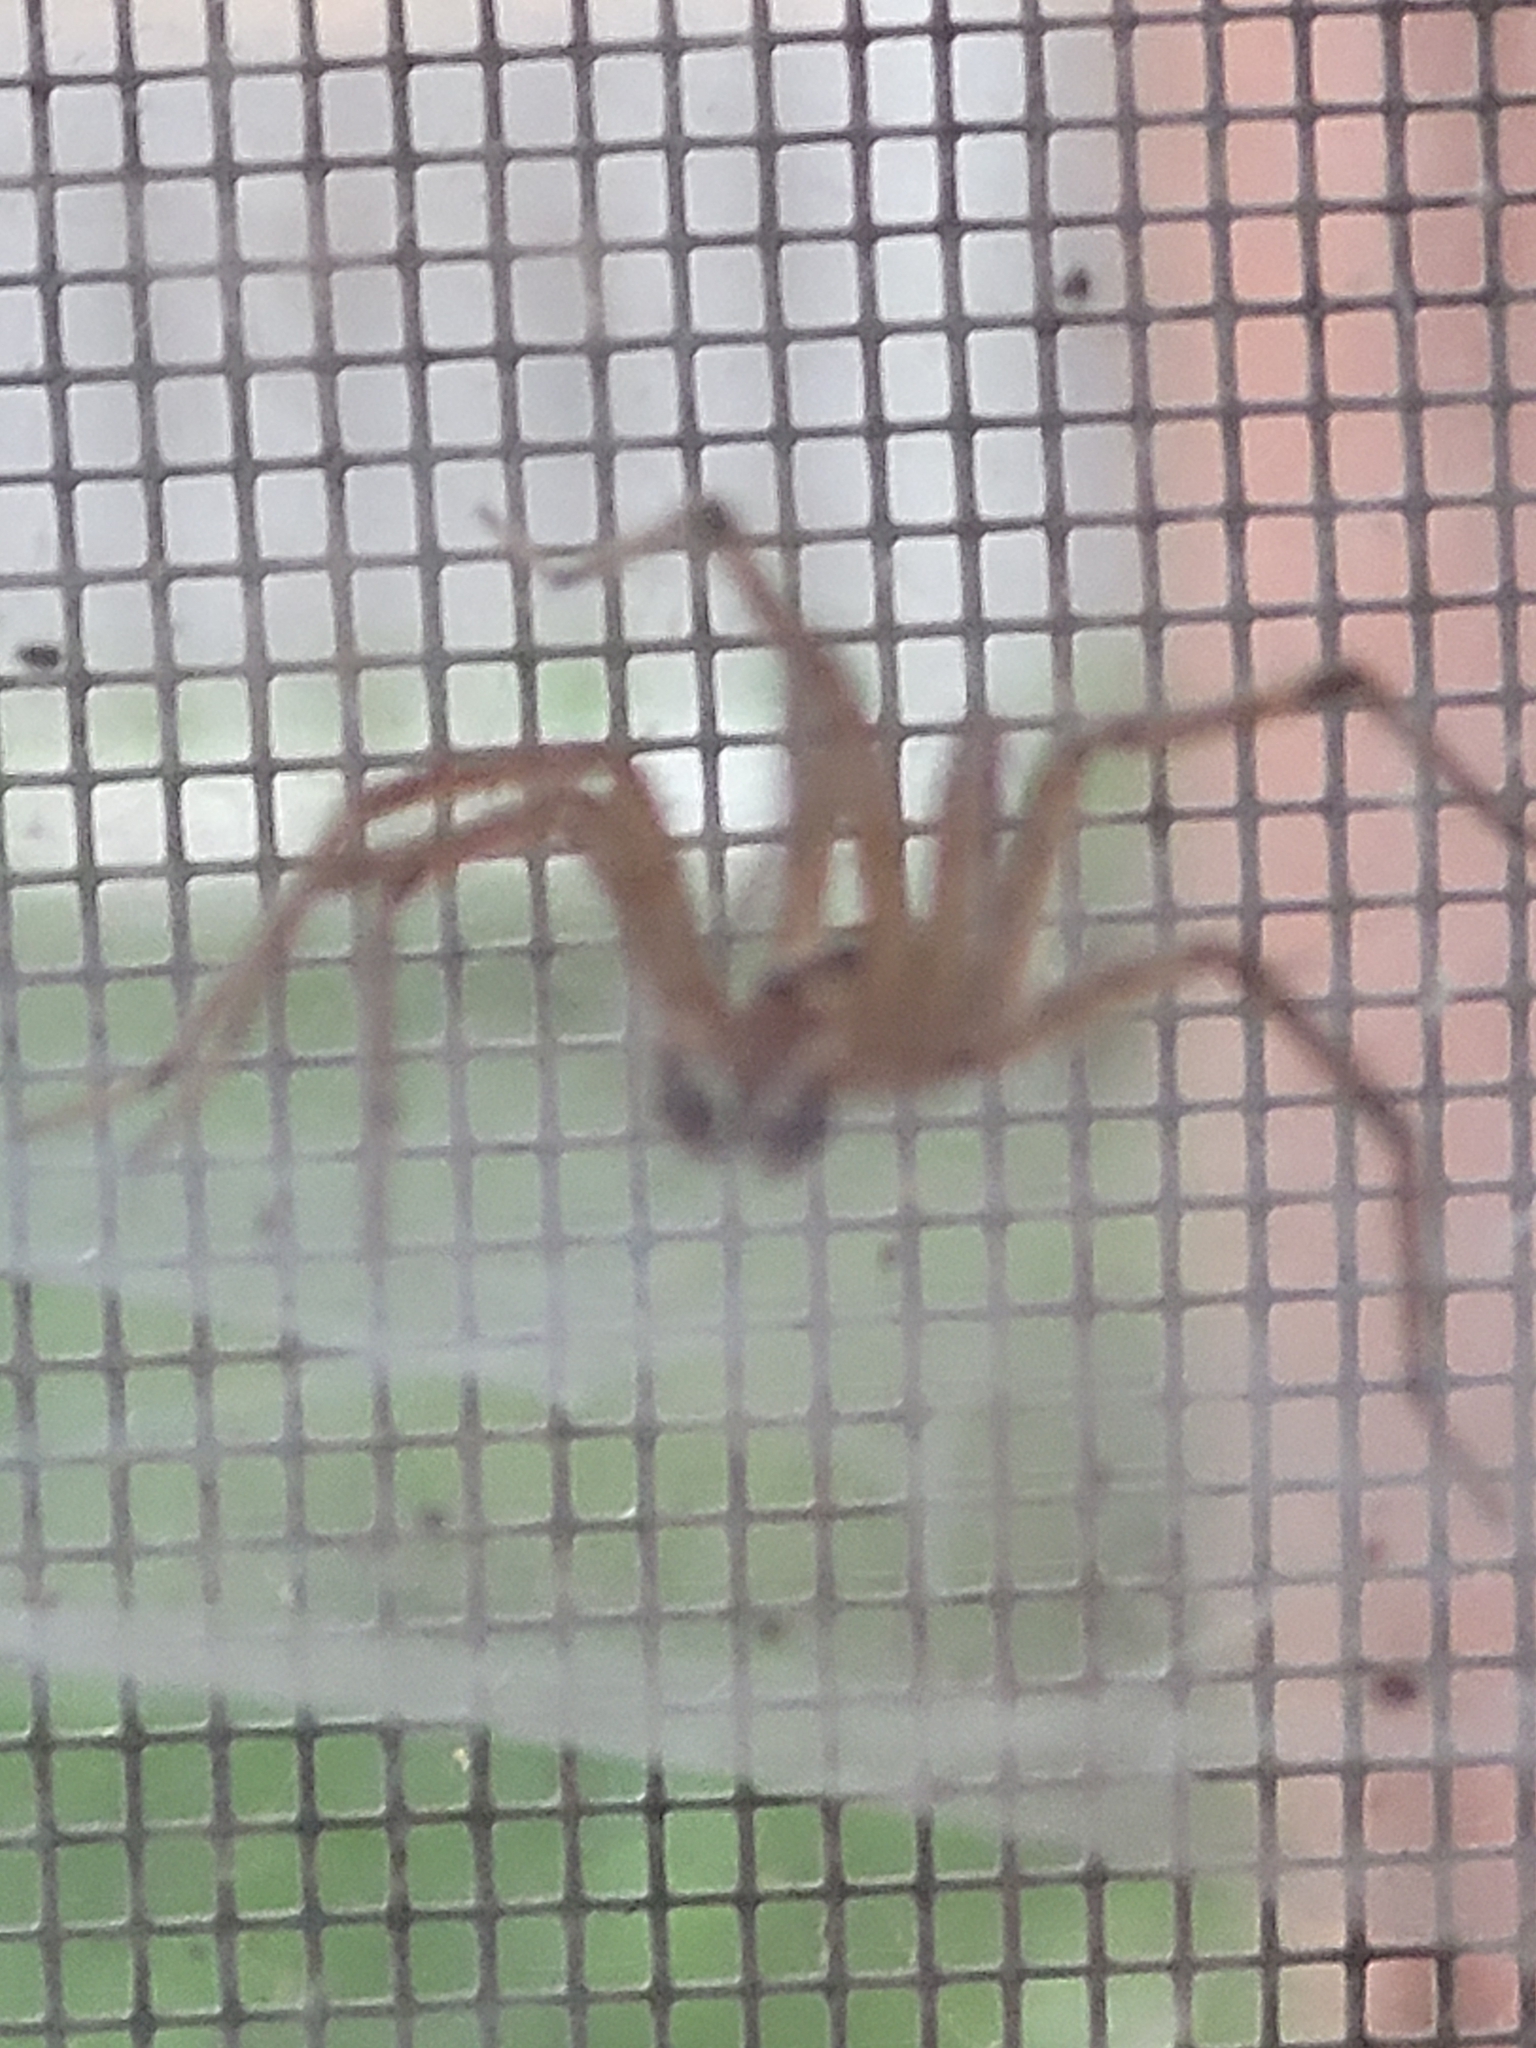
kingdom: Animalia
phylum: Arthropoda
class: Arachnida
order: Araneae
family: Agelenidae
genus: Agelenopsis
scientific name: Agelenopsis
